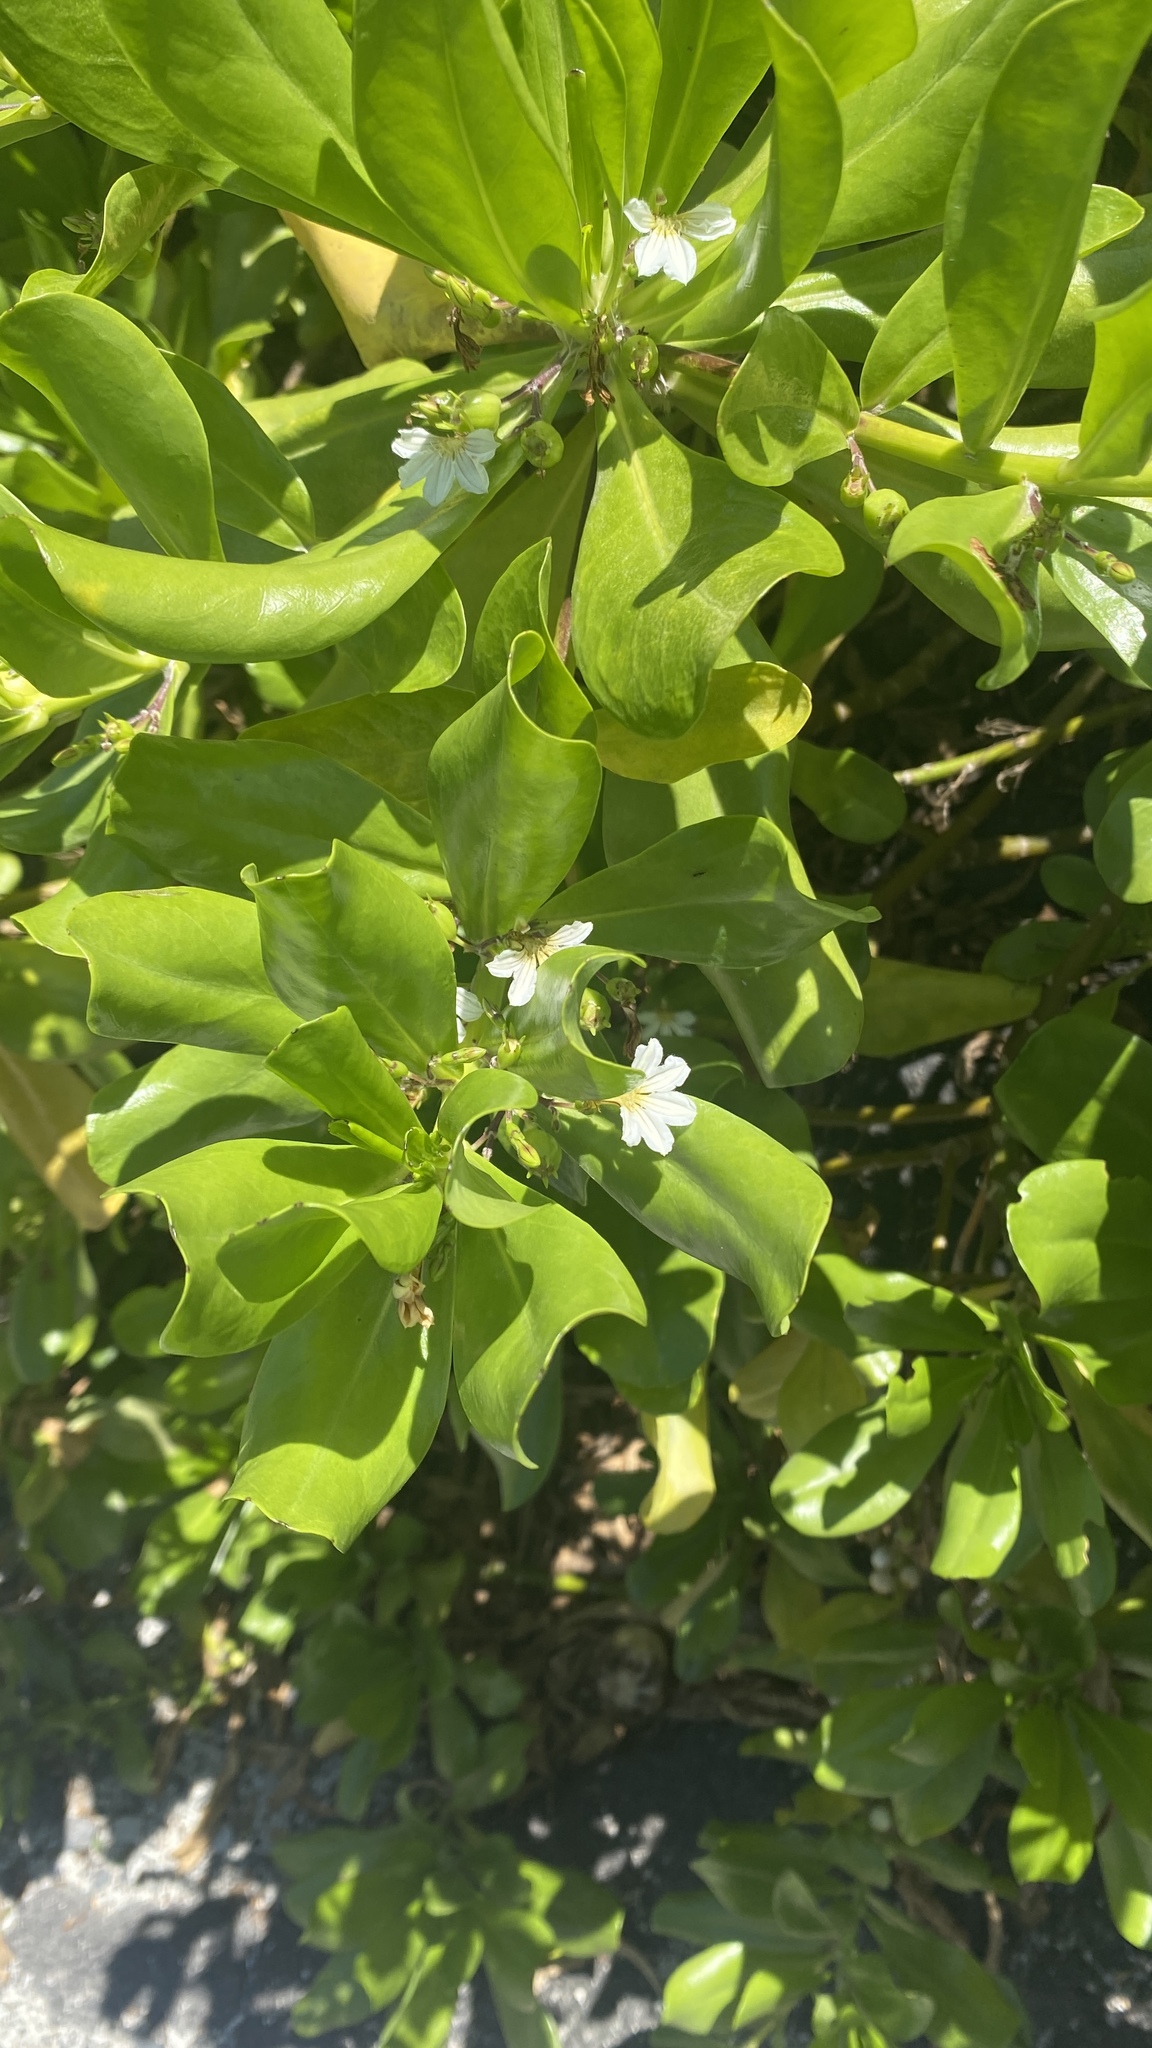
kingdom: Plantae
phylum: Tracheophyta
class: Magnoliopsida
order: Asterales
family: Goodeniaceae
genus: Scaevola
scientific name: Scaevola taccada
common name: Sea lettucetree
